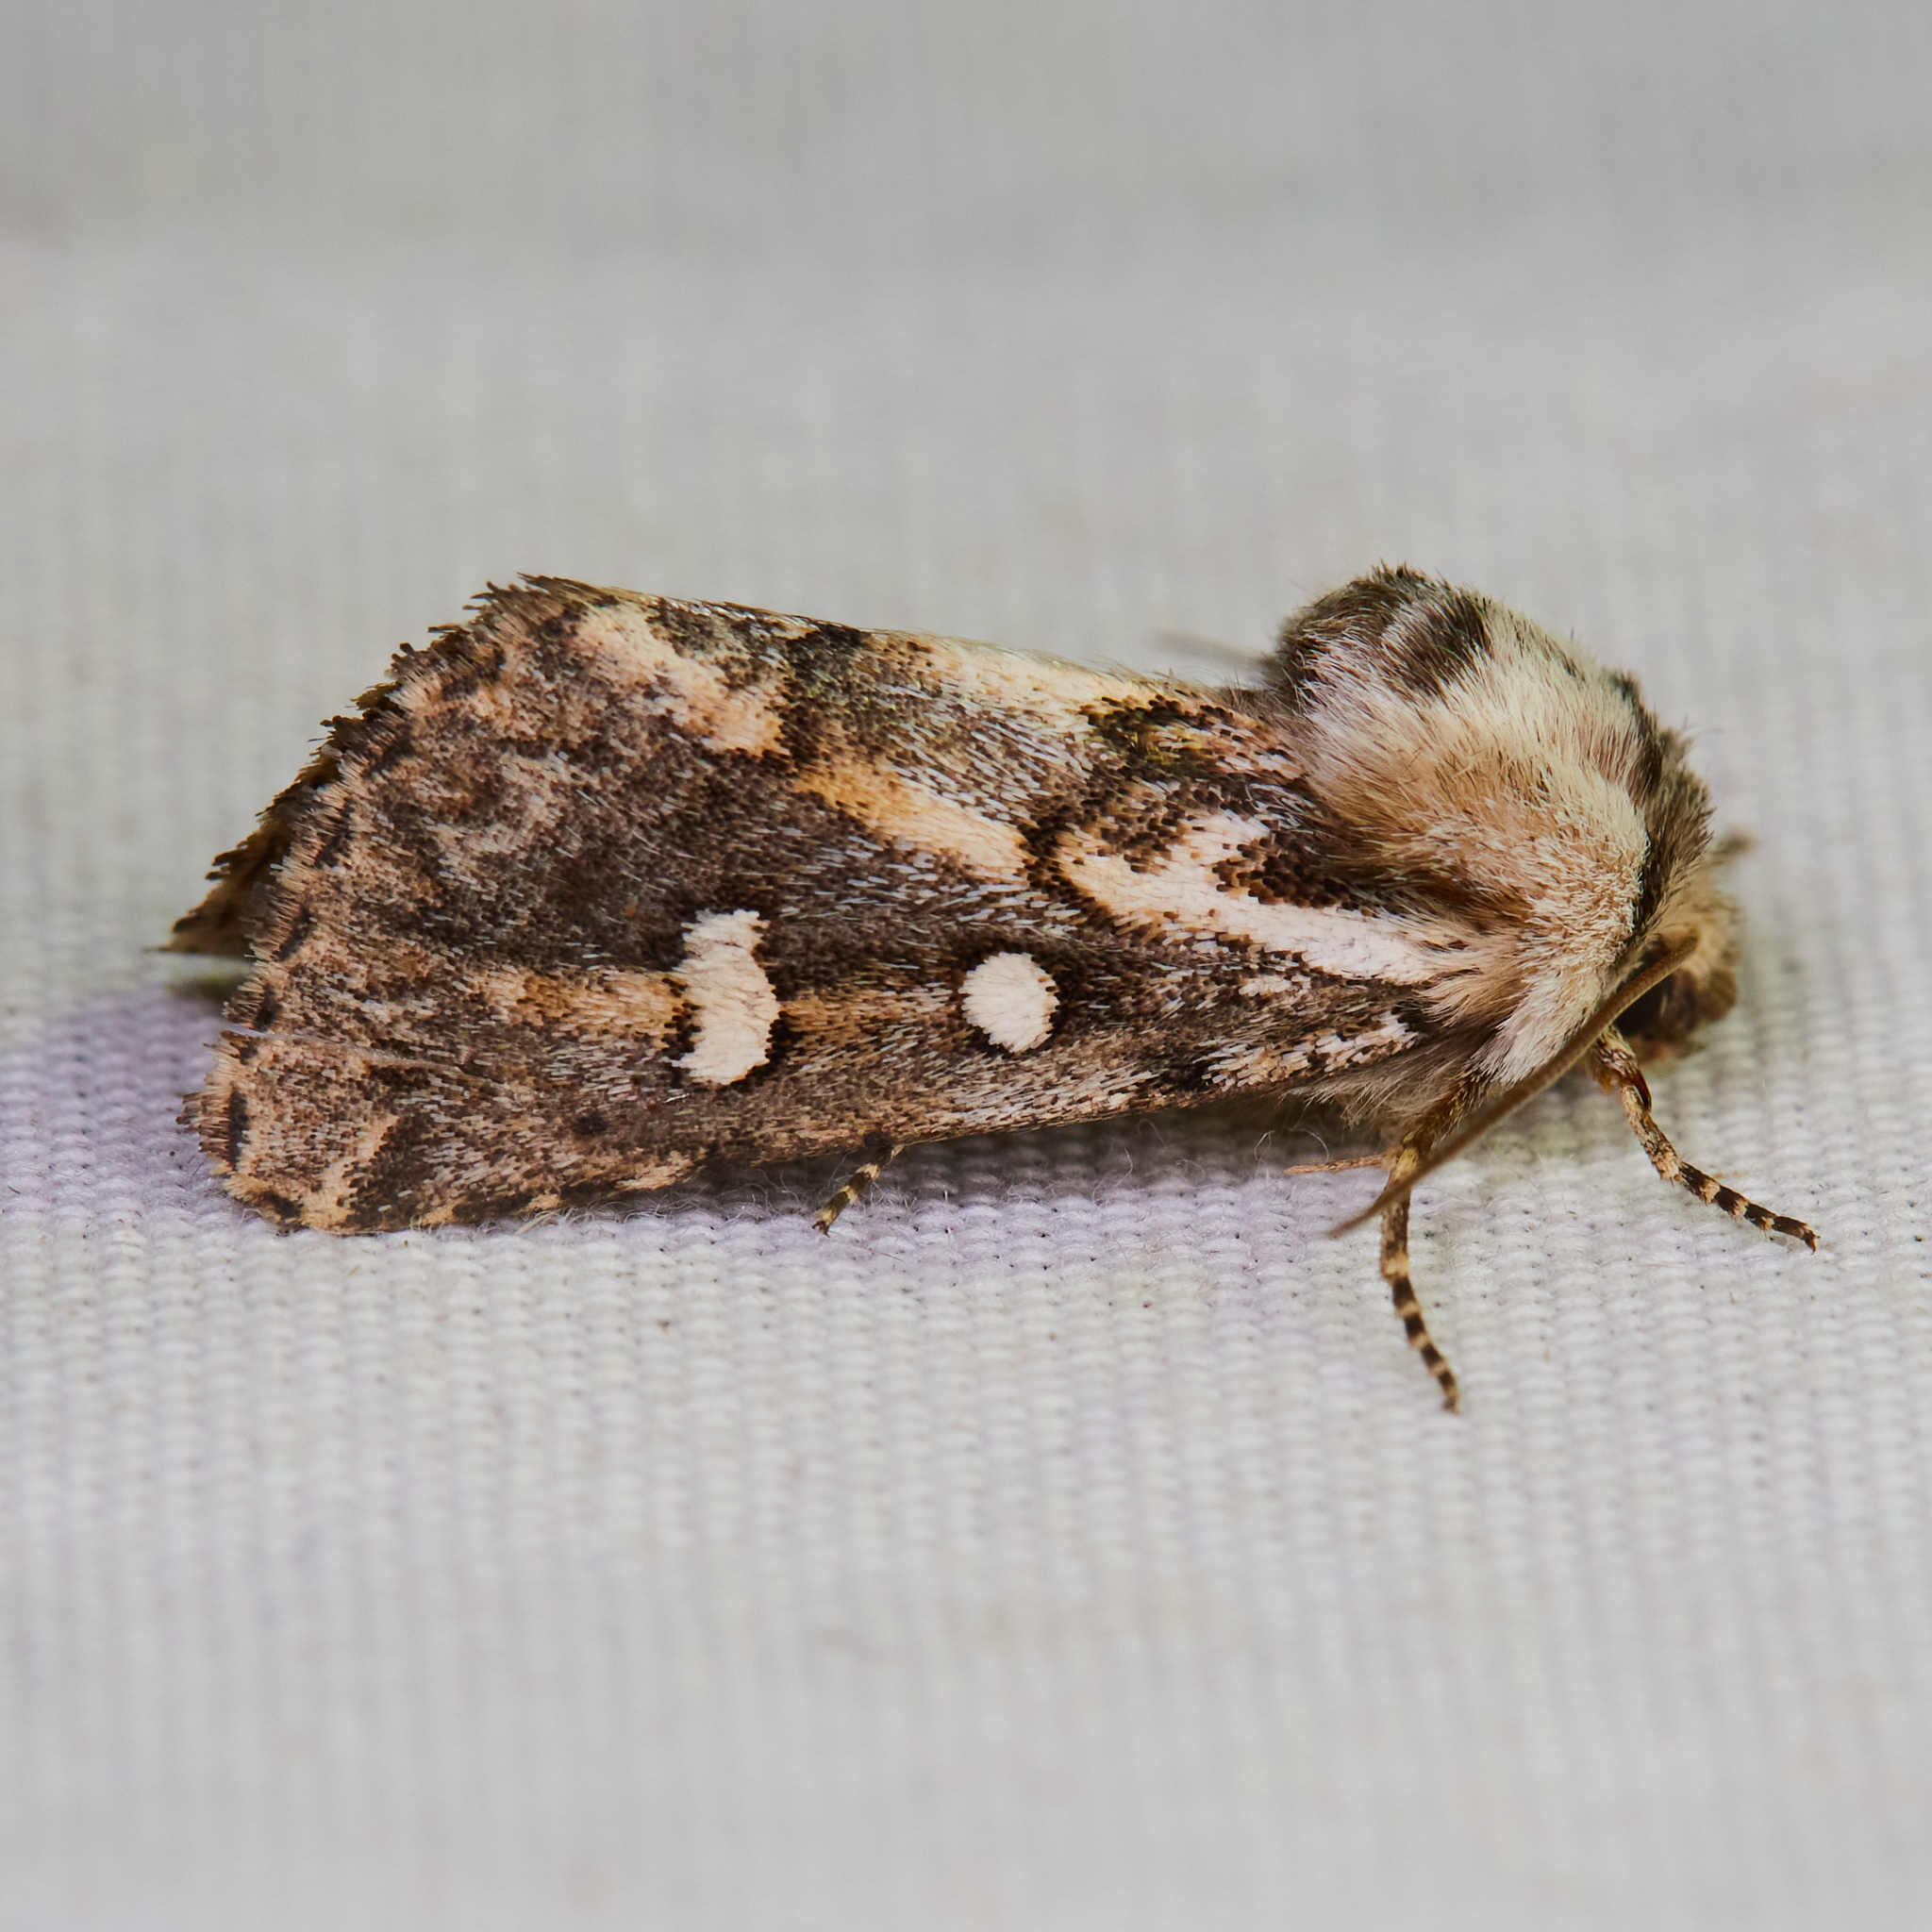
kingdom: Animalia
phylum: Arthropoda
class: Insecta
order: Lepidoptera
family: Noctuidae
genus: Fala
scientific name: Fala ptychophora
